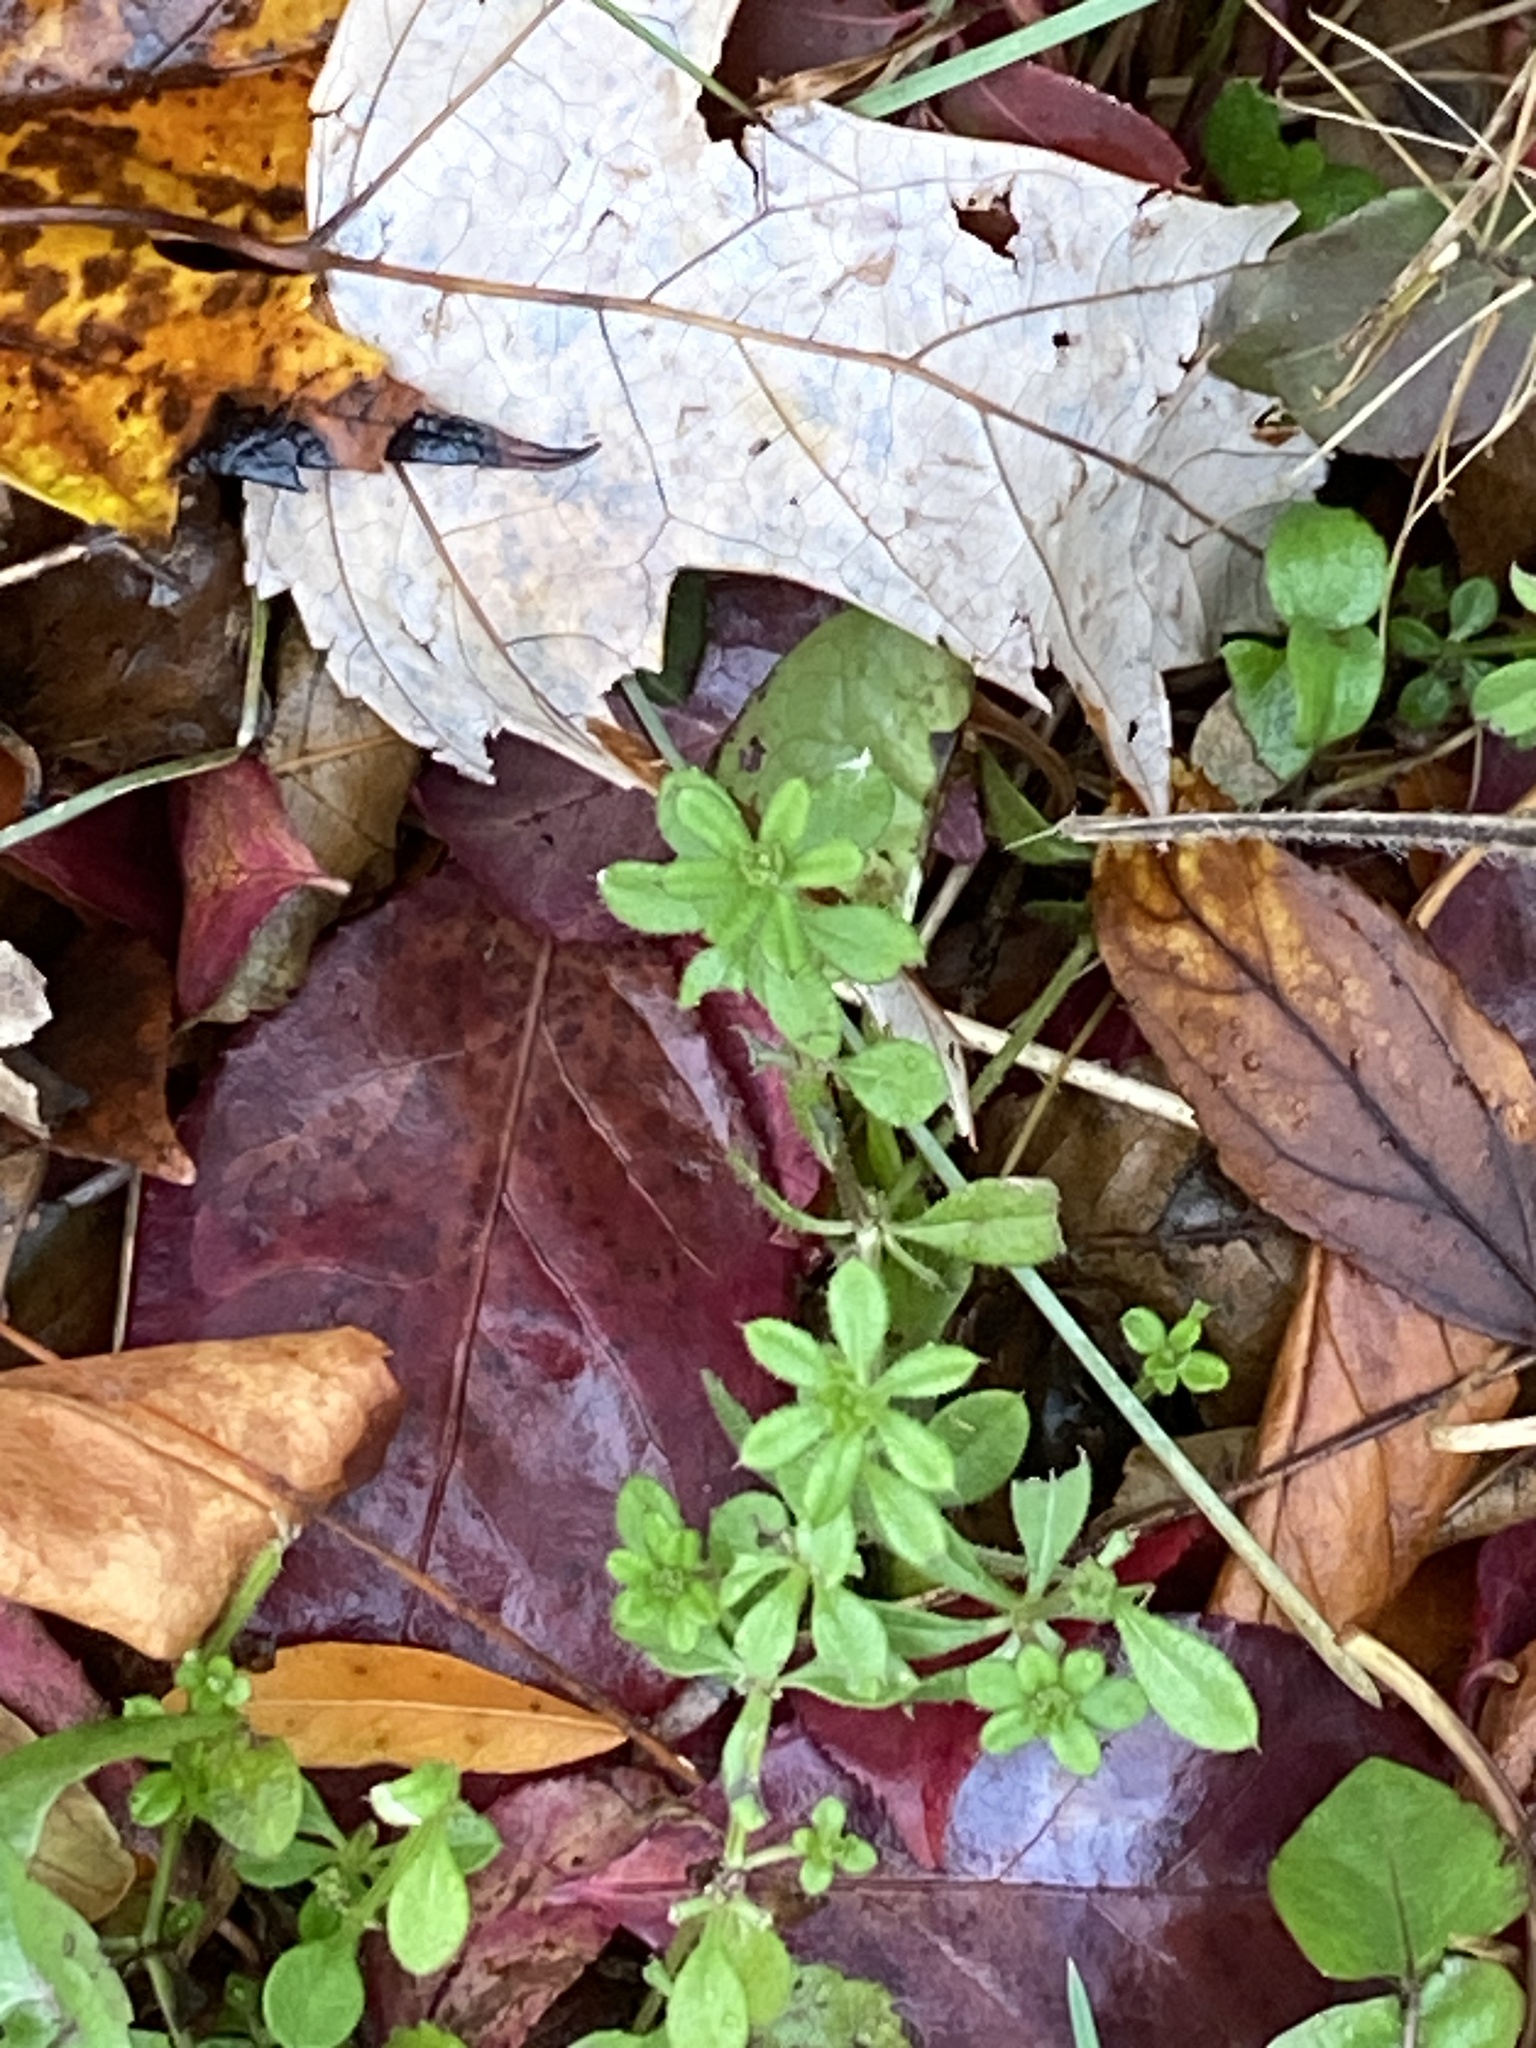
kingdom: Plantae
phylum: Tracheophyta
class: Magnoliopsida
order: Gentianales
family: Rubiaceae
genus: Galium
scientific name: Galium aparine
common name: Cleavers
